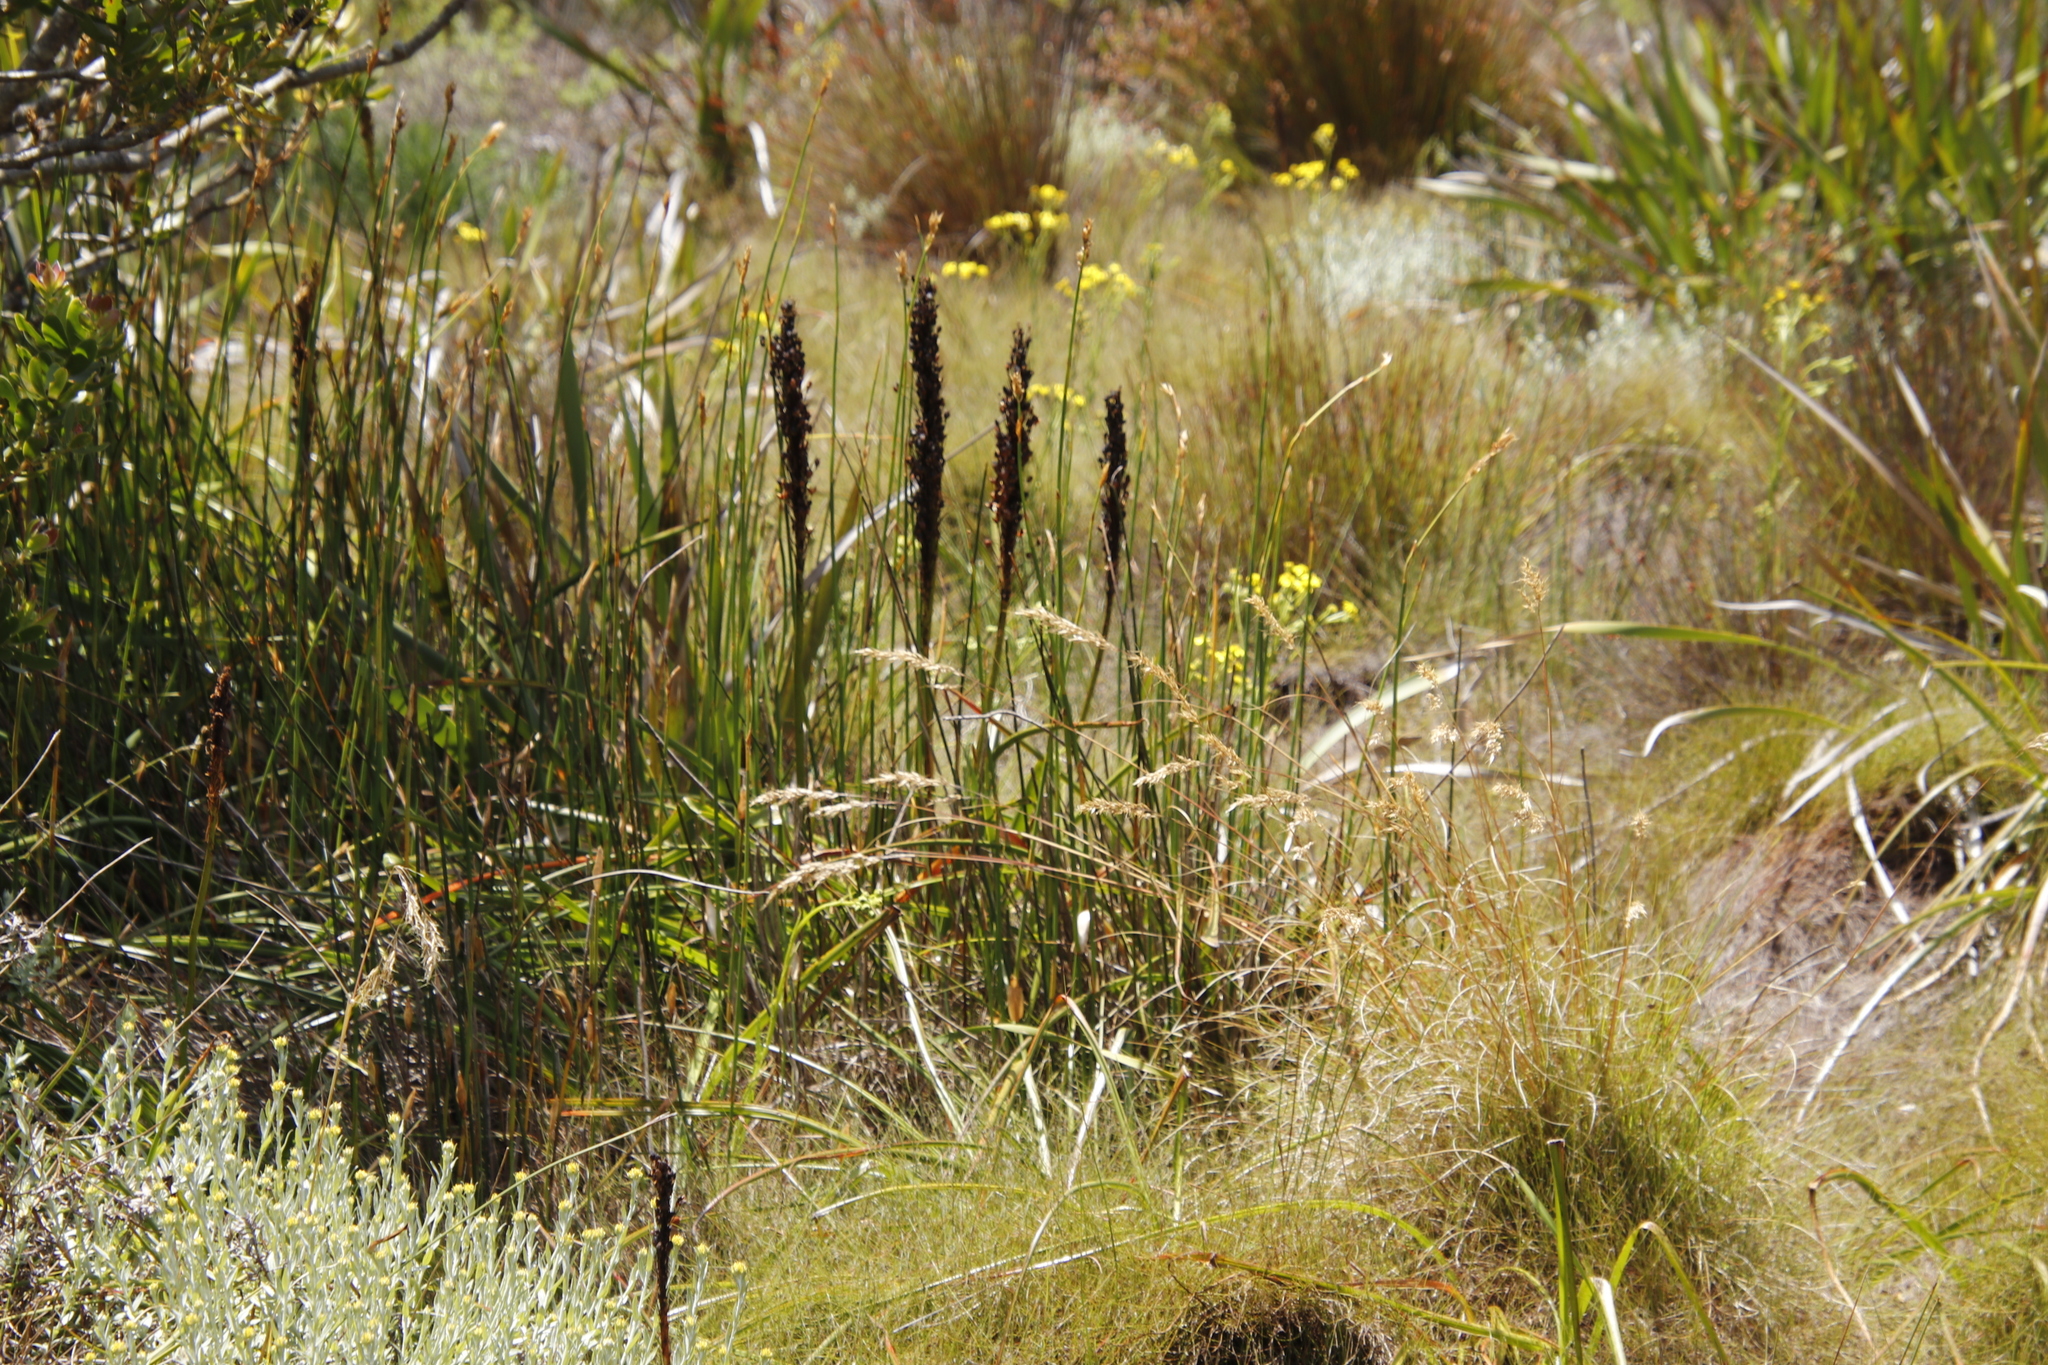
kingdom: Plantae
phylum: Tracheophyta
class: Liliopsida
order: Asparagales
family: Asphodelaceae
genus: Kniphofia
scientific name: Kniphofia tabularis
